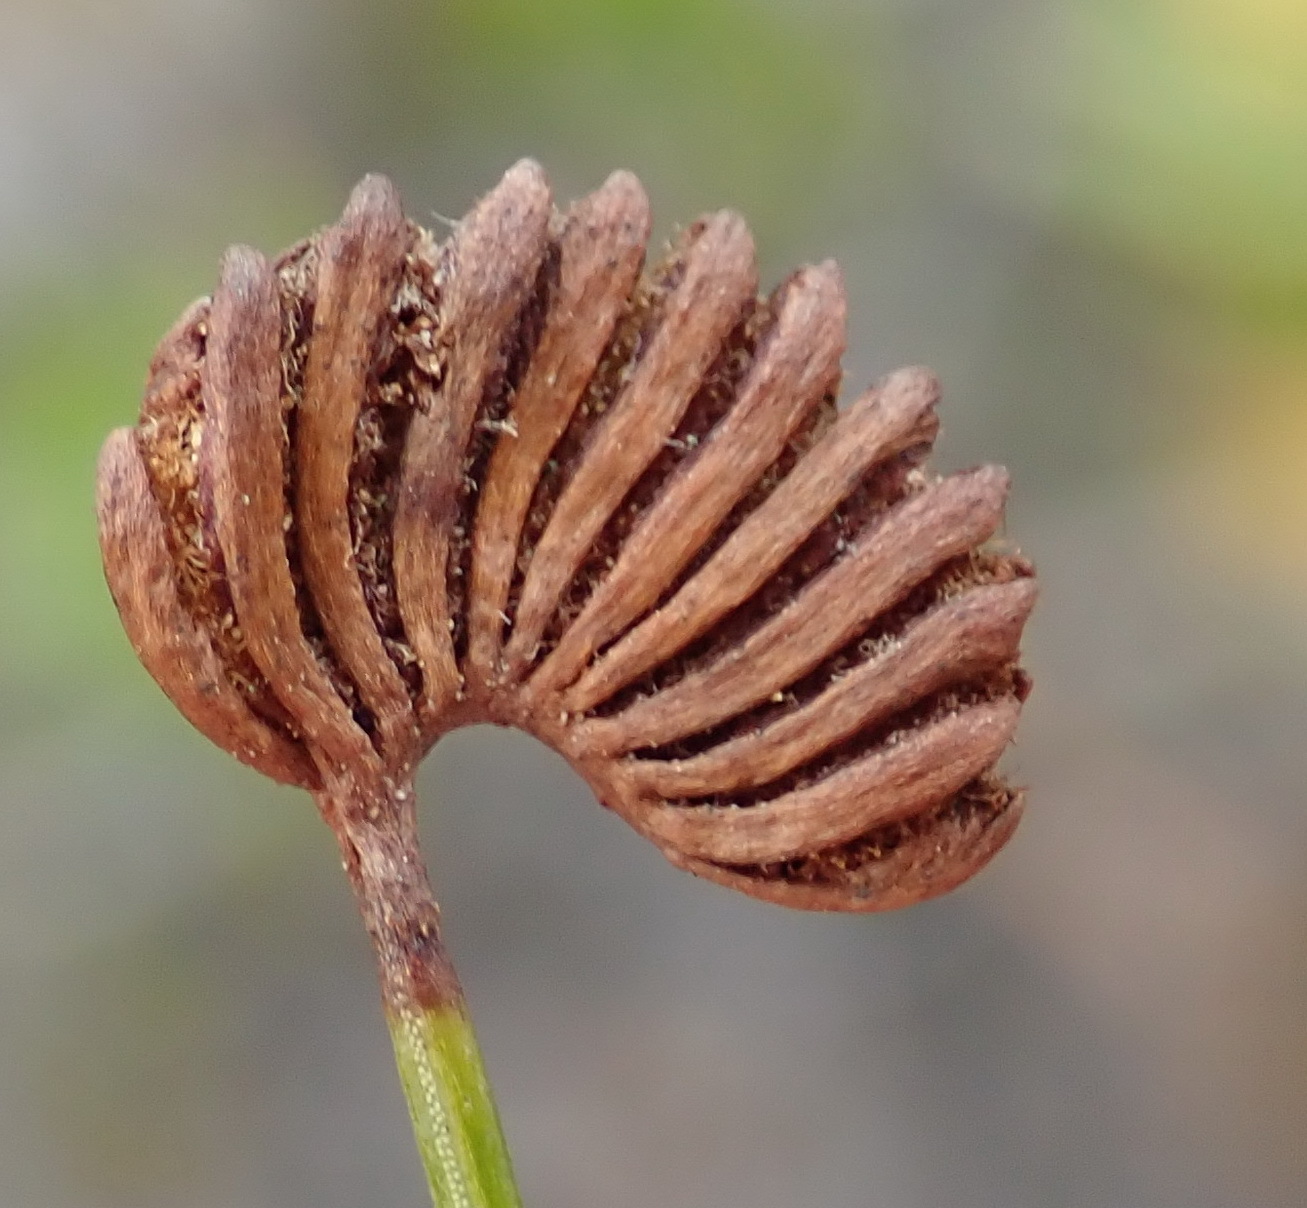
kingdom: Plantae
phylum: Tracheophyta
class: Polypodiopsida
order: Schizaeales
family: Schizaeaceae
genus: Schizaea
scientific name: Schizaea pectinata
